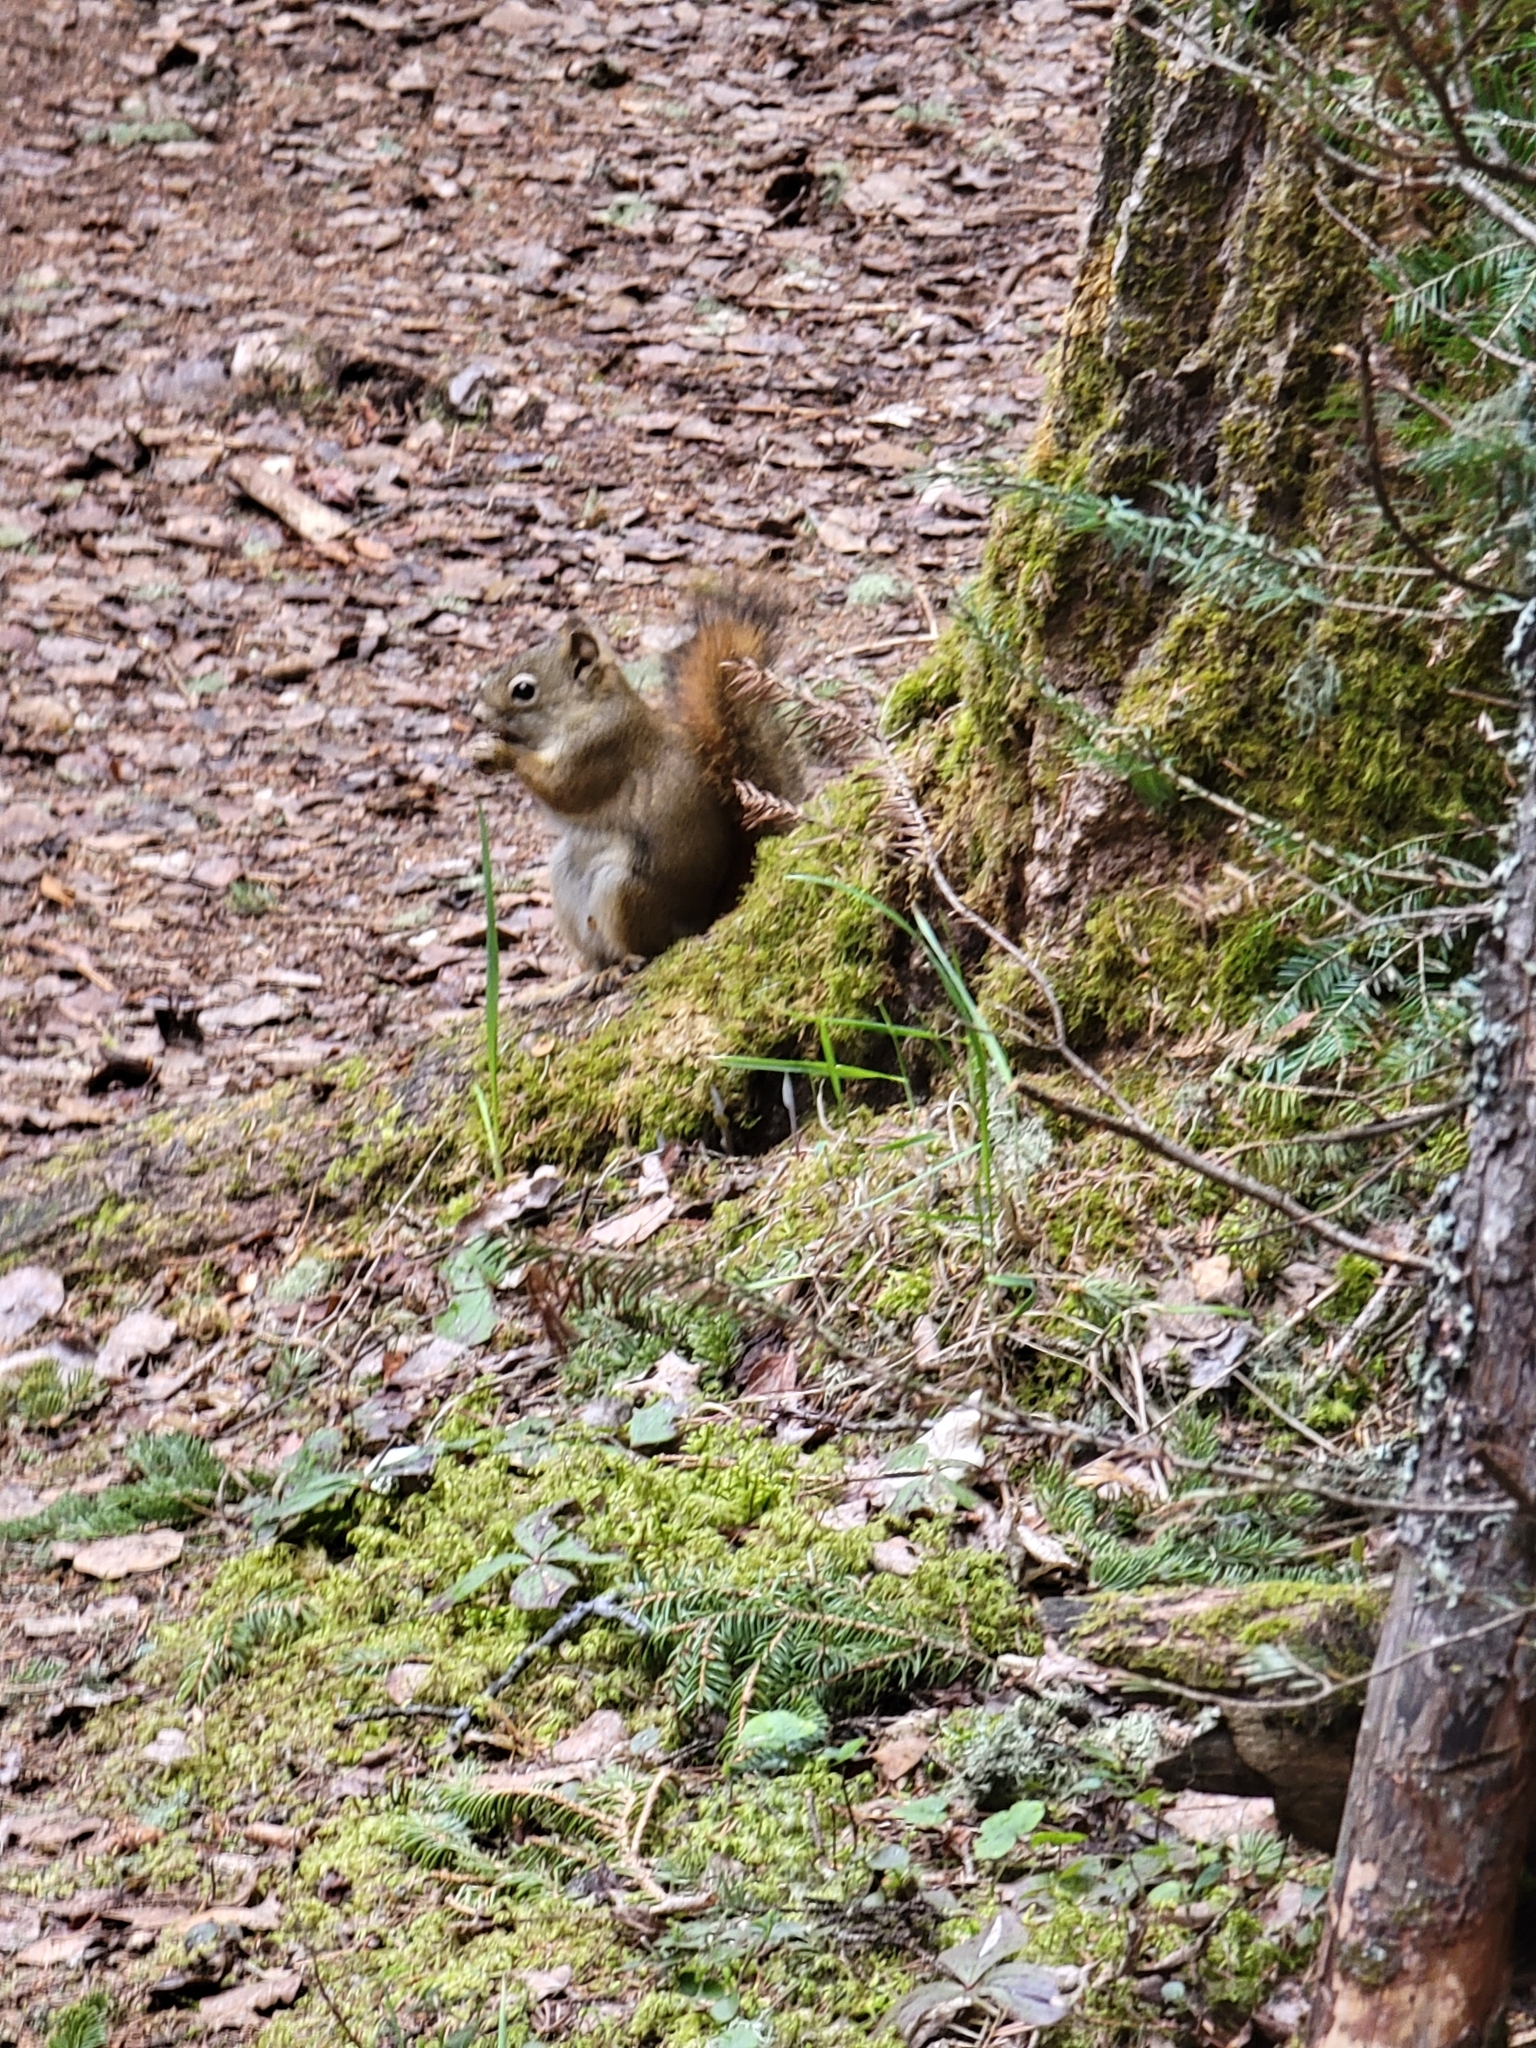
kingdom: Animalia
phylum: Chordata
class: Mammalia
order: Rodentia
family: Sciuridae
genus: Tamiasciurus
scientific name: Tamiasciurus hudsonicus
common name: Red squirrel
